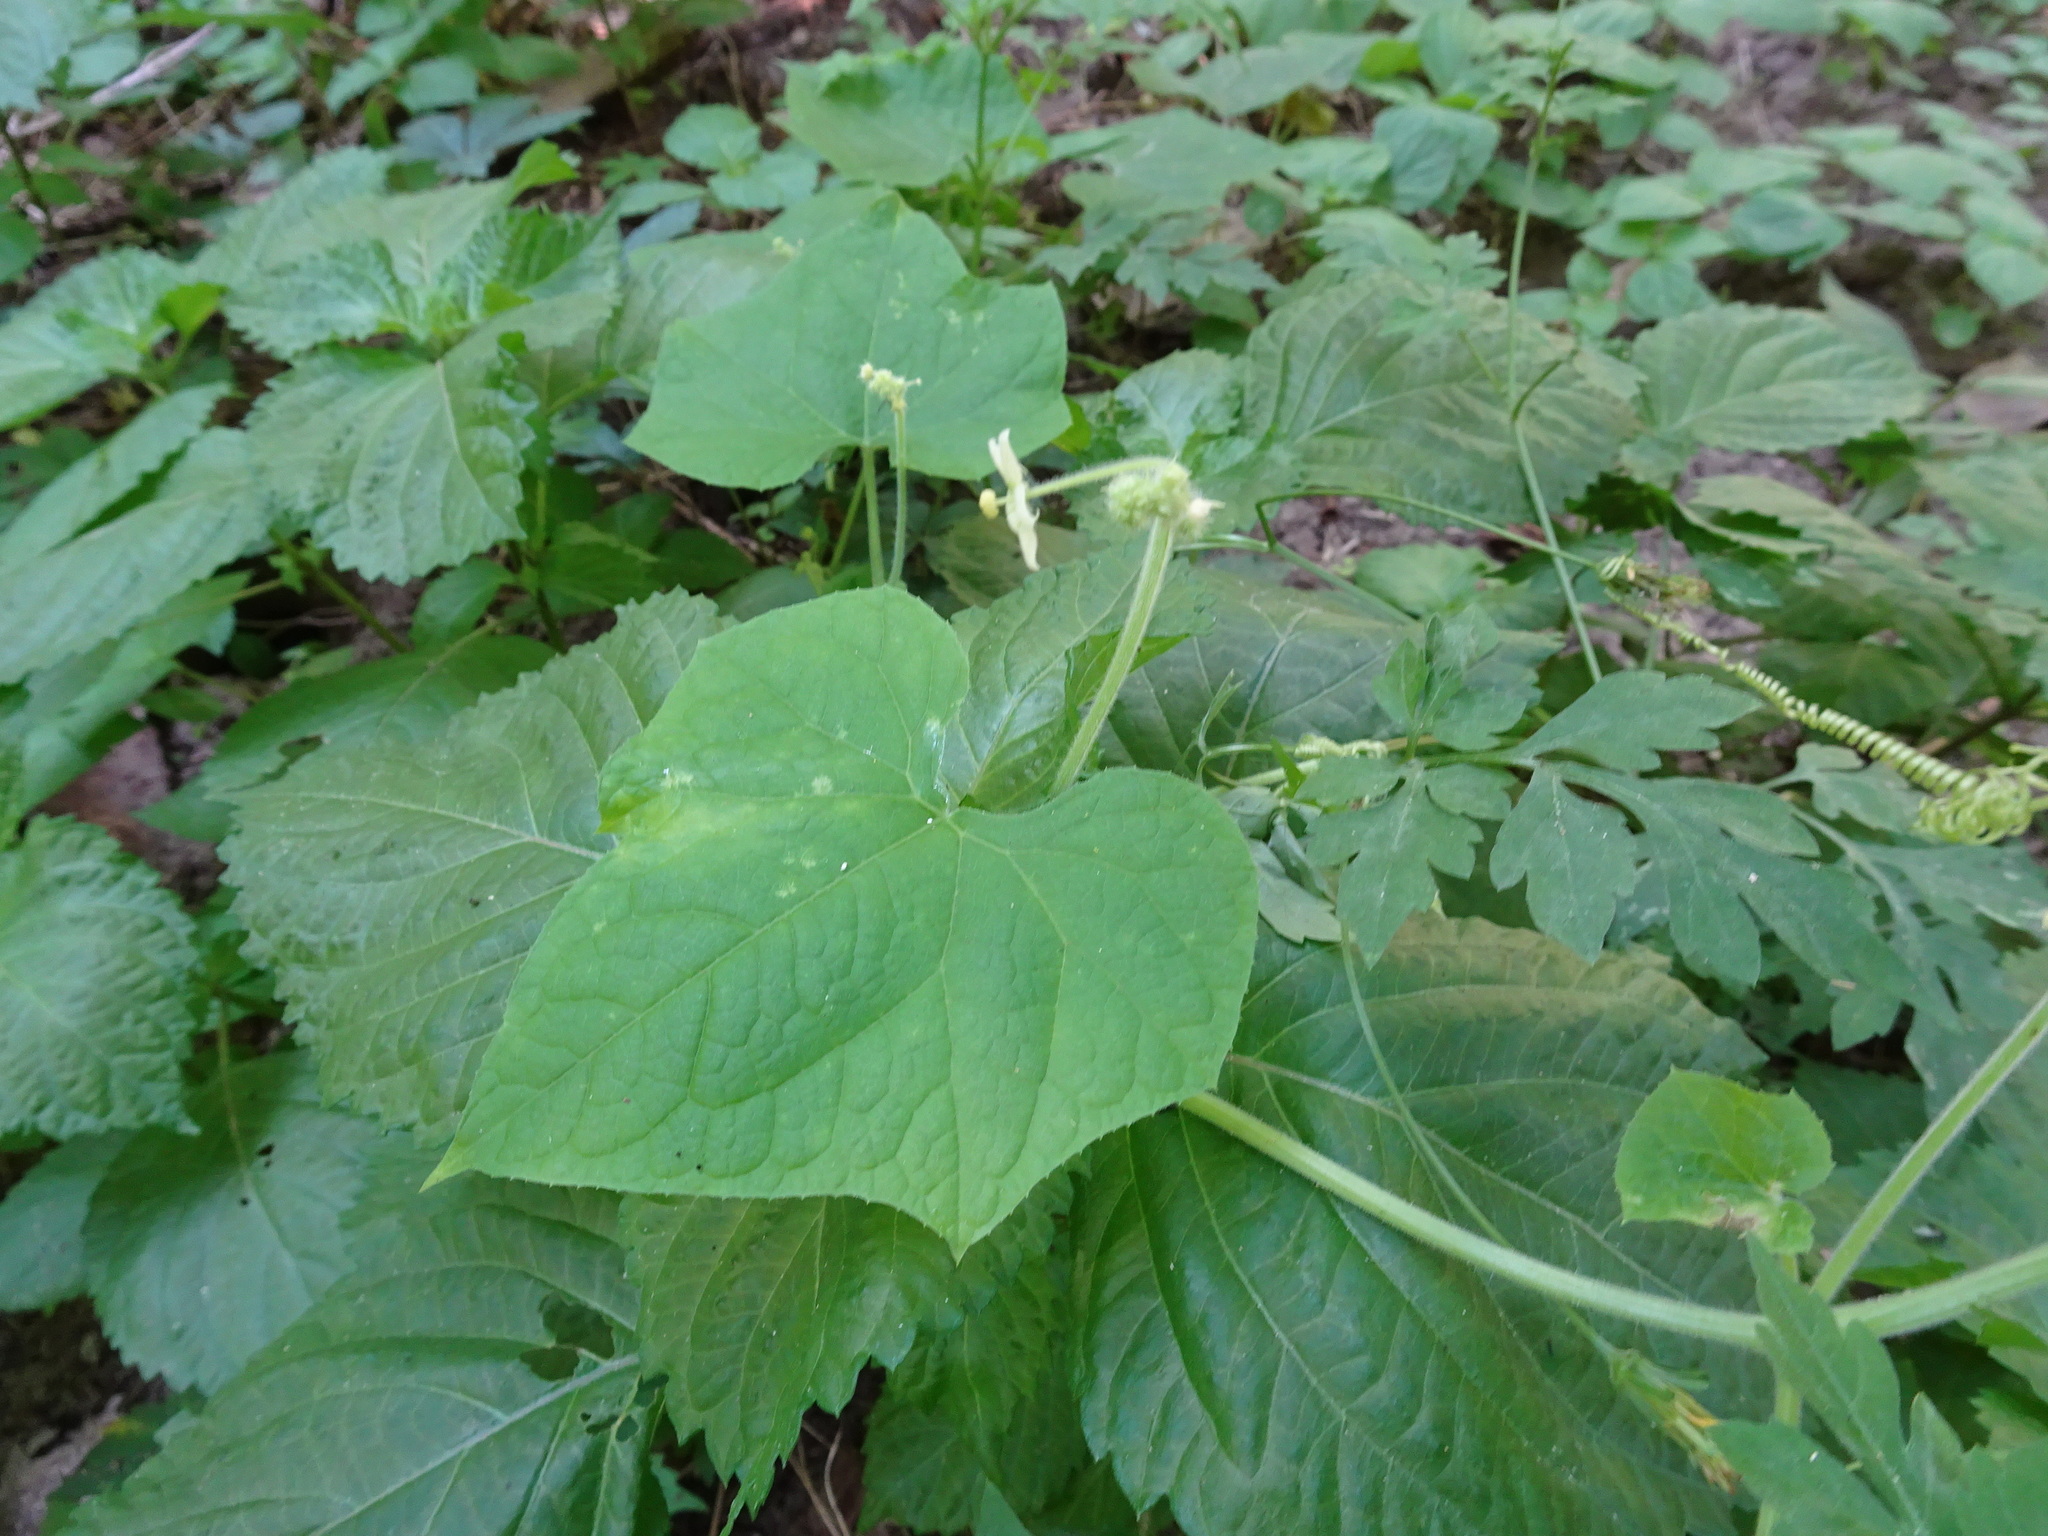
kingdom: Plantae
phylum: Tracheophyta
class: Magnoliopsida
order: Cucurbitales
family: Cucurbitaceae
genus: Sicyos
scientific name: Sicyos angulatus
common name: Angled burr cucumber
